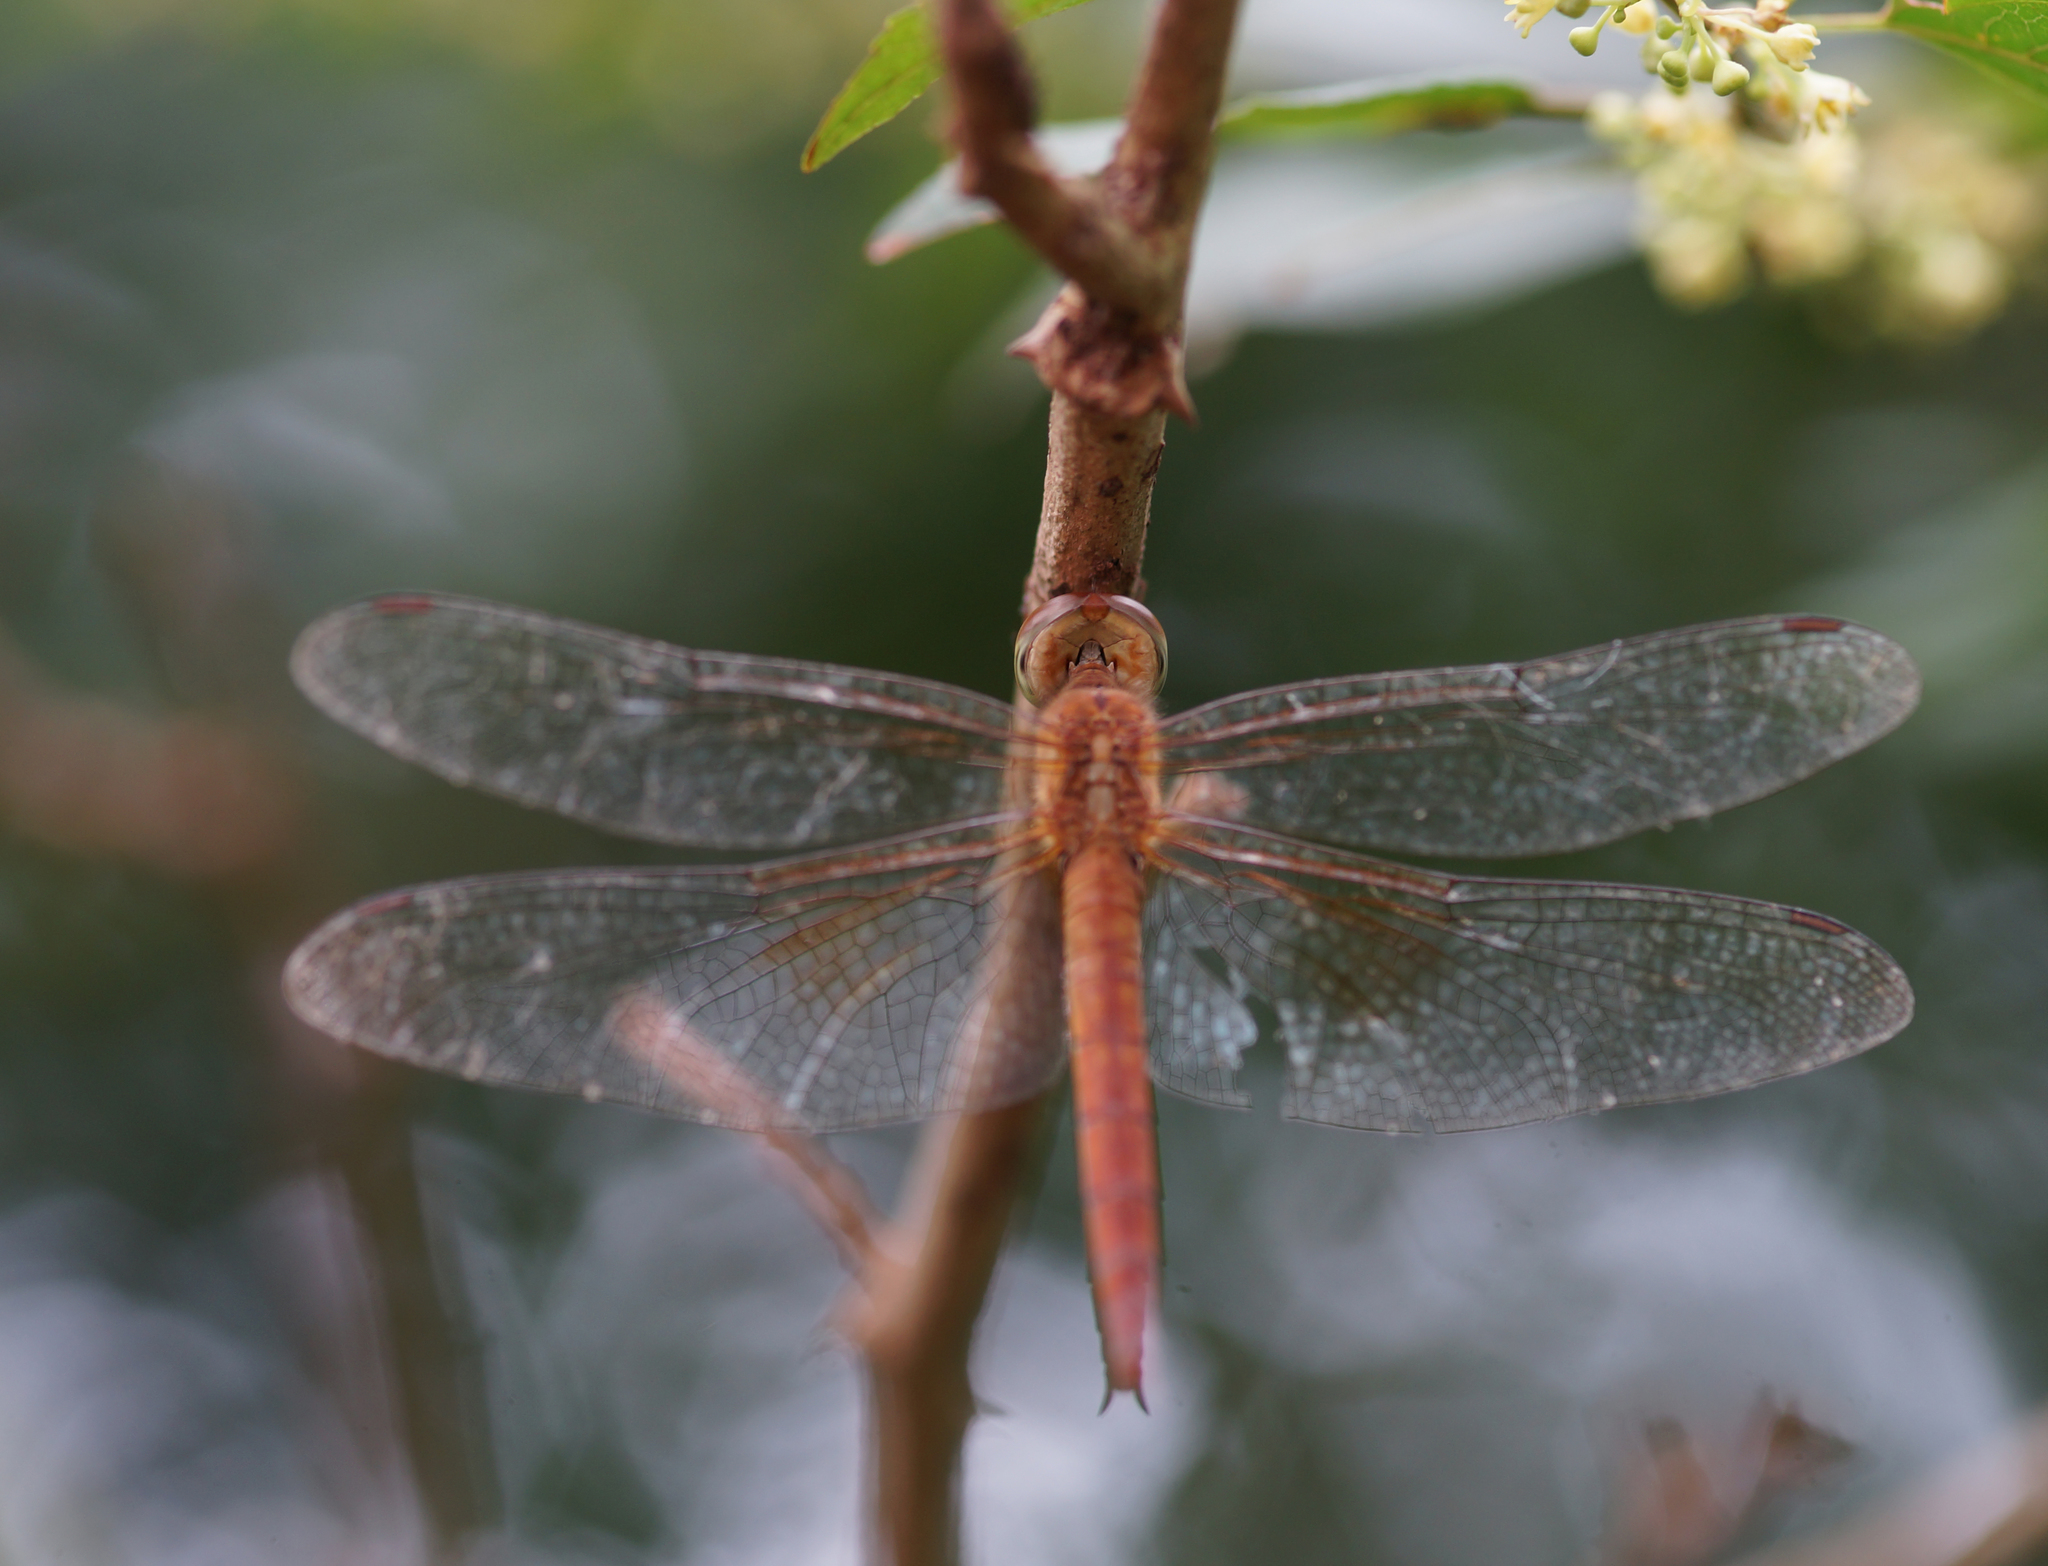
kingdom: Animalia
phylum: Arthropoda
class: Insecta
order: Odonata
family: Libellulidae
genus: Tholymis
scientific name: Tholymis tillarga
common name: Coral-tailed cloud wing
